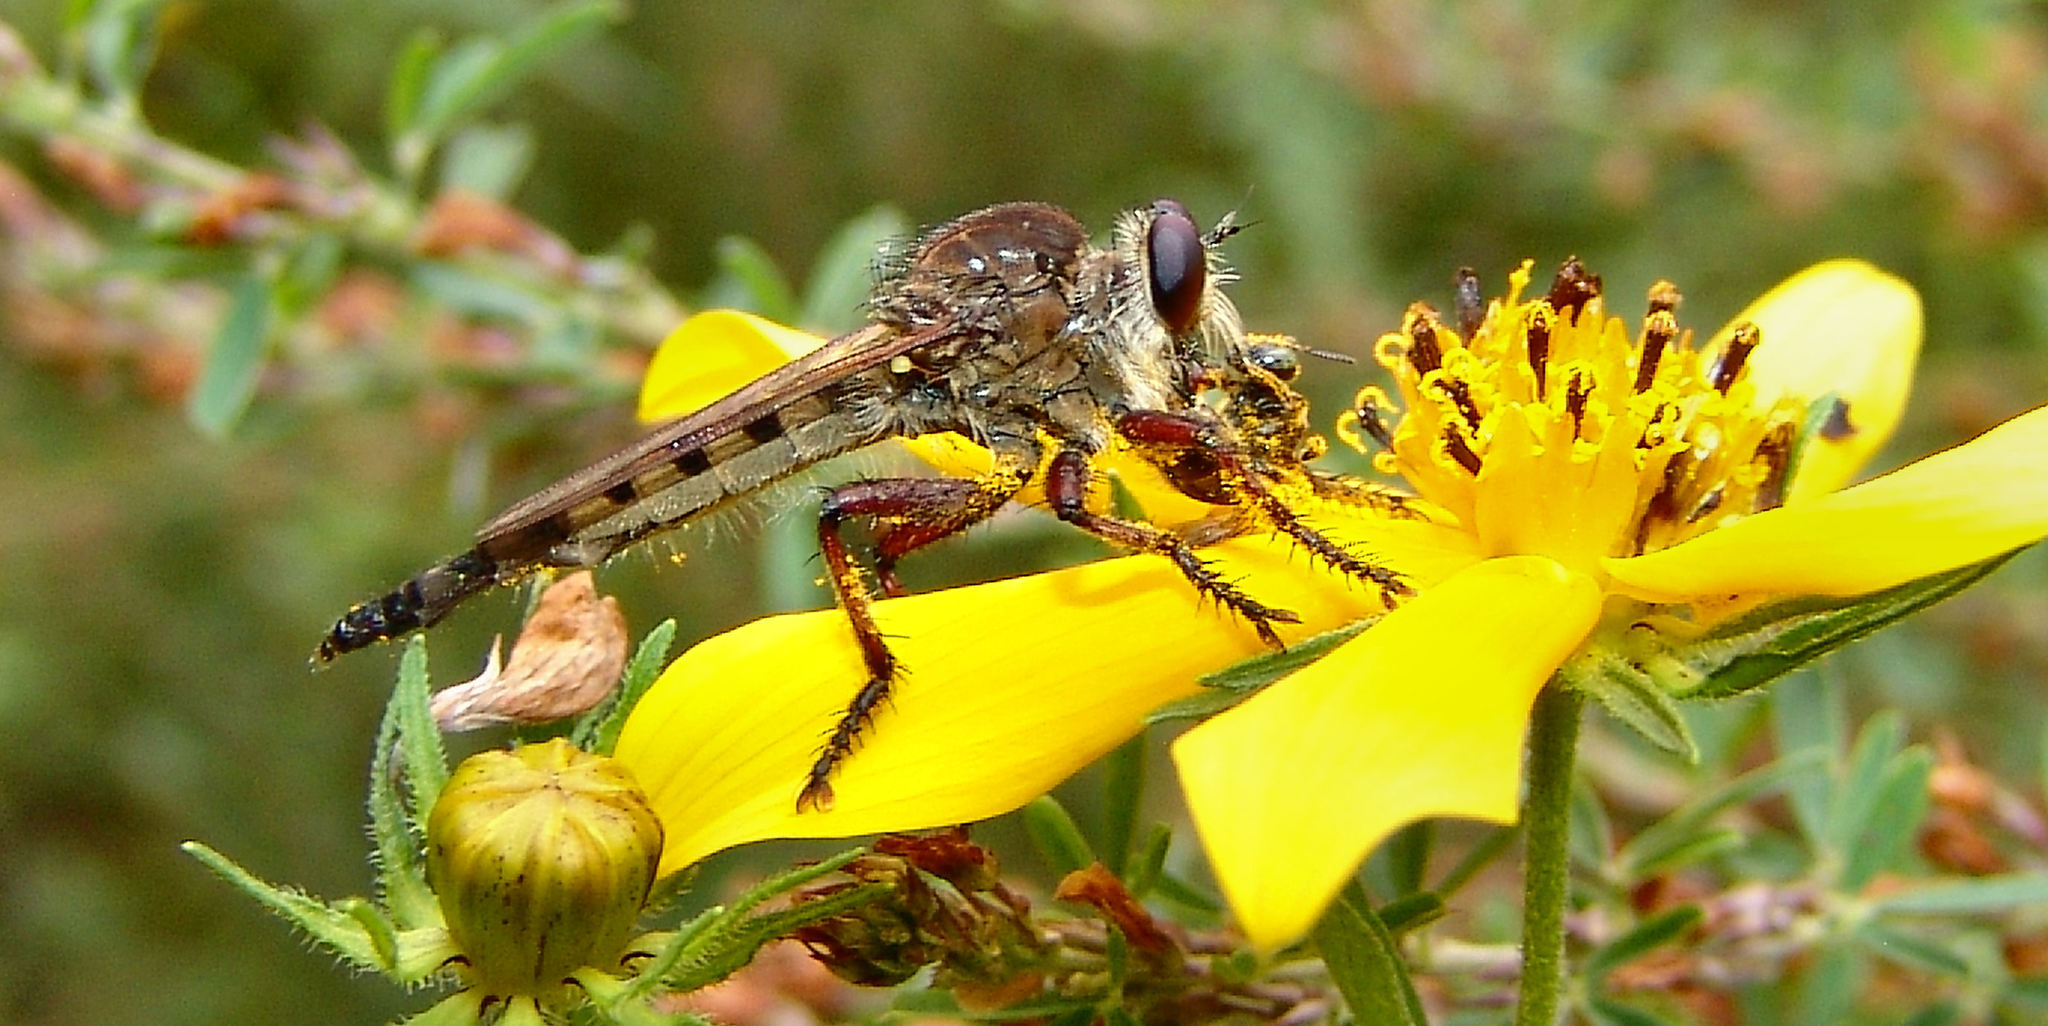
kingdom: Animalia
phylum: Arthropoda
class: Insecta
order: Diptera
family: Asilidae
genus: Promachus
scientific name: Promachus hinei
